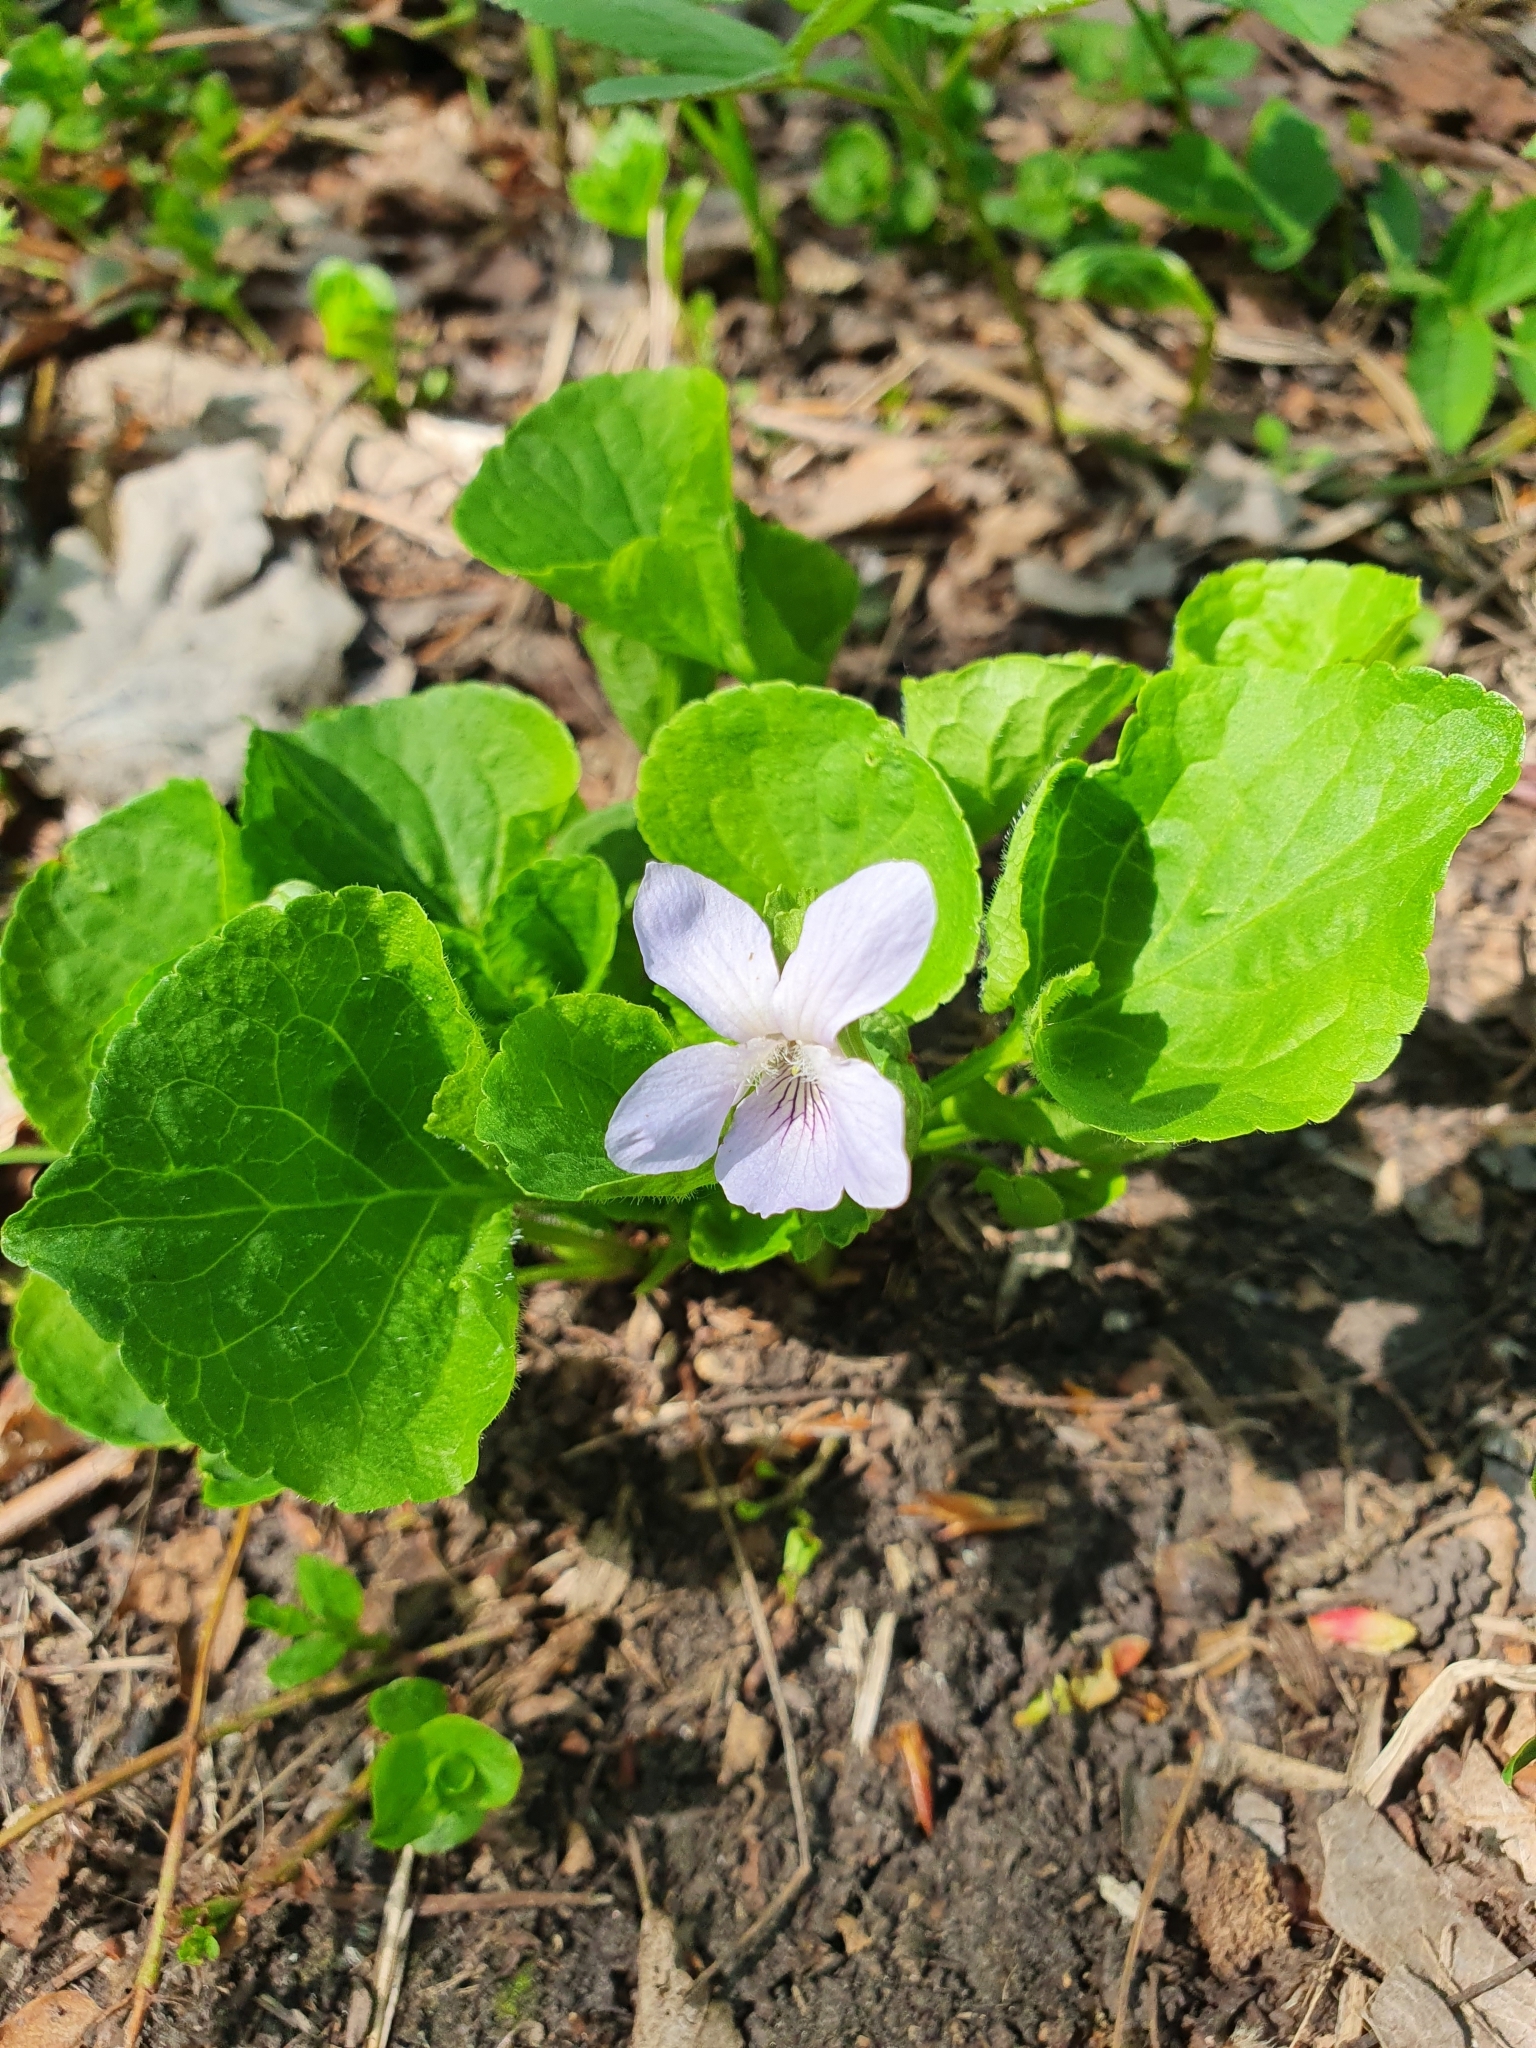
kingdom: Plantae
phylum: Tracheophyta
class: Magnoliopsida
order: Malpighiales
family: Violaceae
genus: Viola
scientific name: Viola mirabilis
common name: Wonder violet
